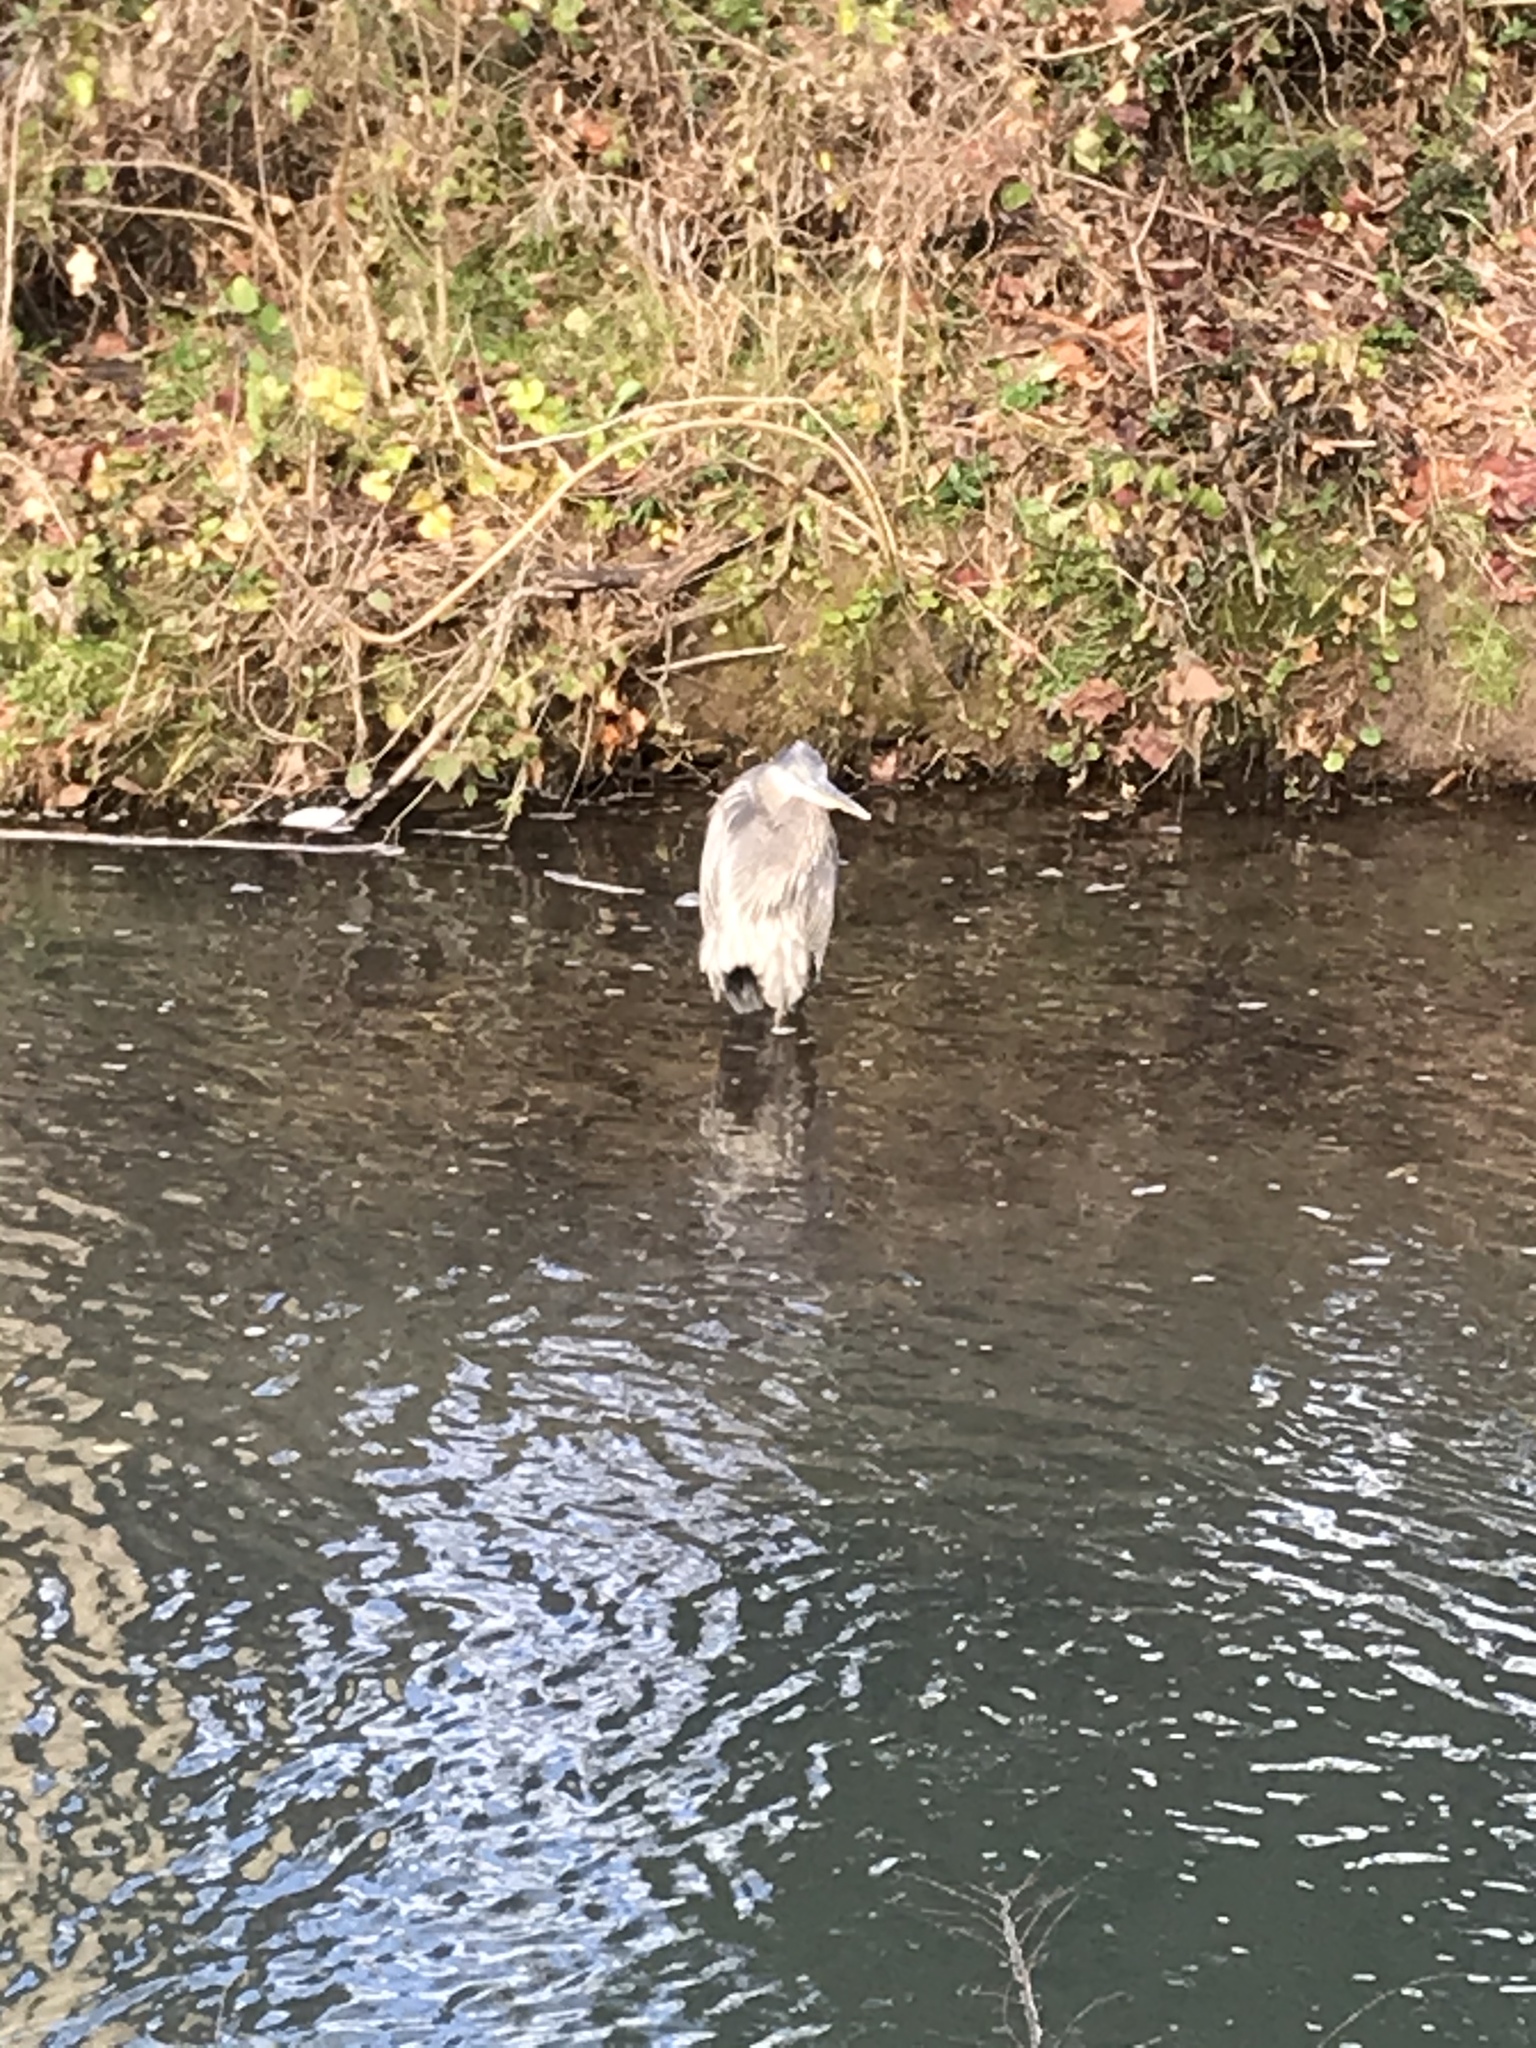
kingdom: Animalia
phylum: Chordata
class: Aves
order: Pelecaniformes
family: Ardeidae
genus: Ardea
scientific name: Ardea herodias
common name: Great blue heron
